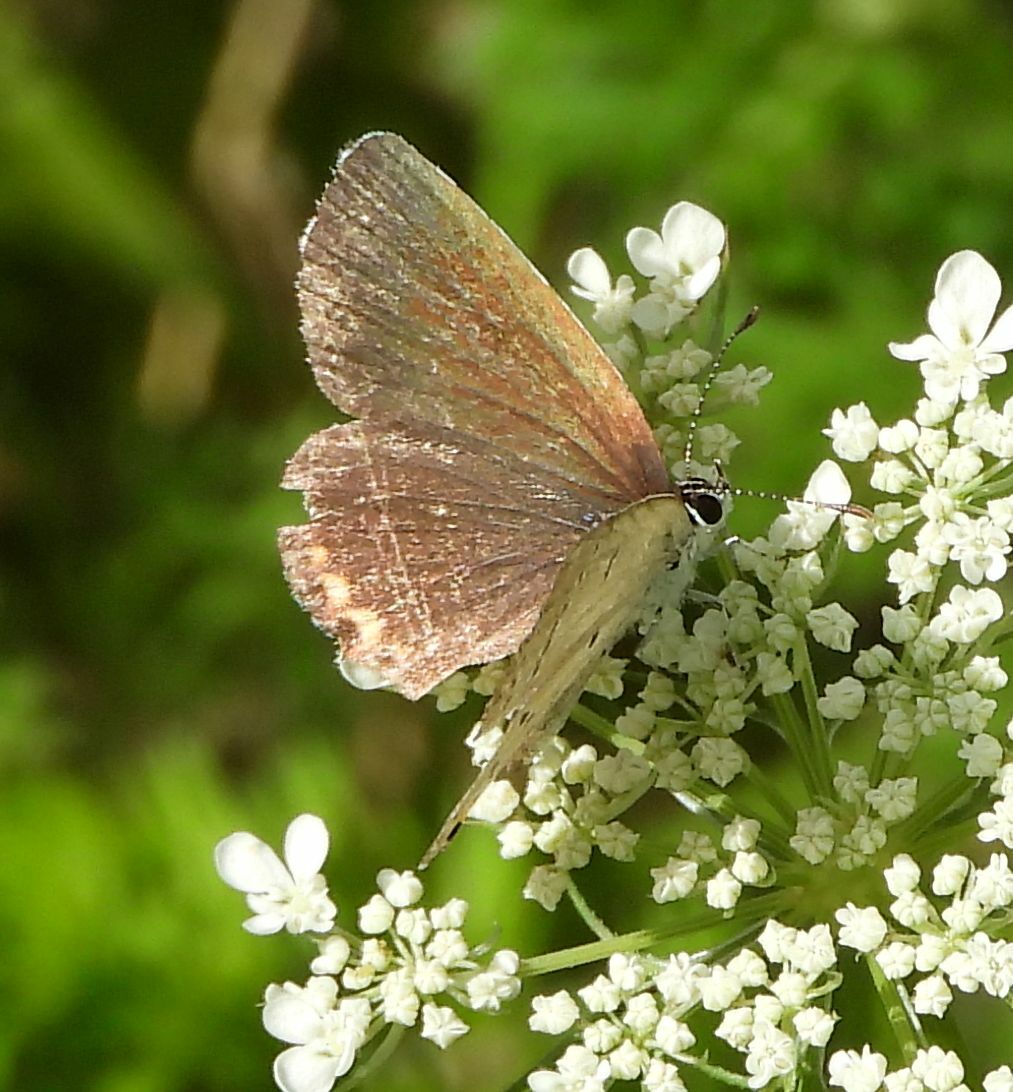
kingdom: Animalia
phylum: Arthropoda
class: Insecta
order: Lepidoptera
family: Lycaenidae
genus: Elkalyce
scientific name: Elkalyce comyntas
